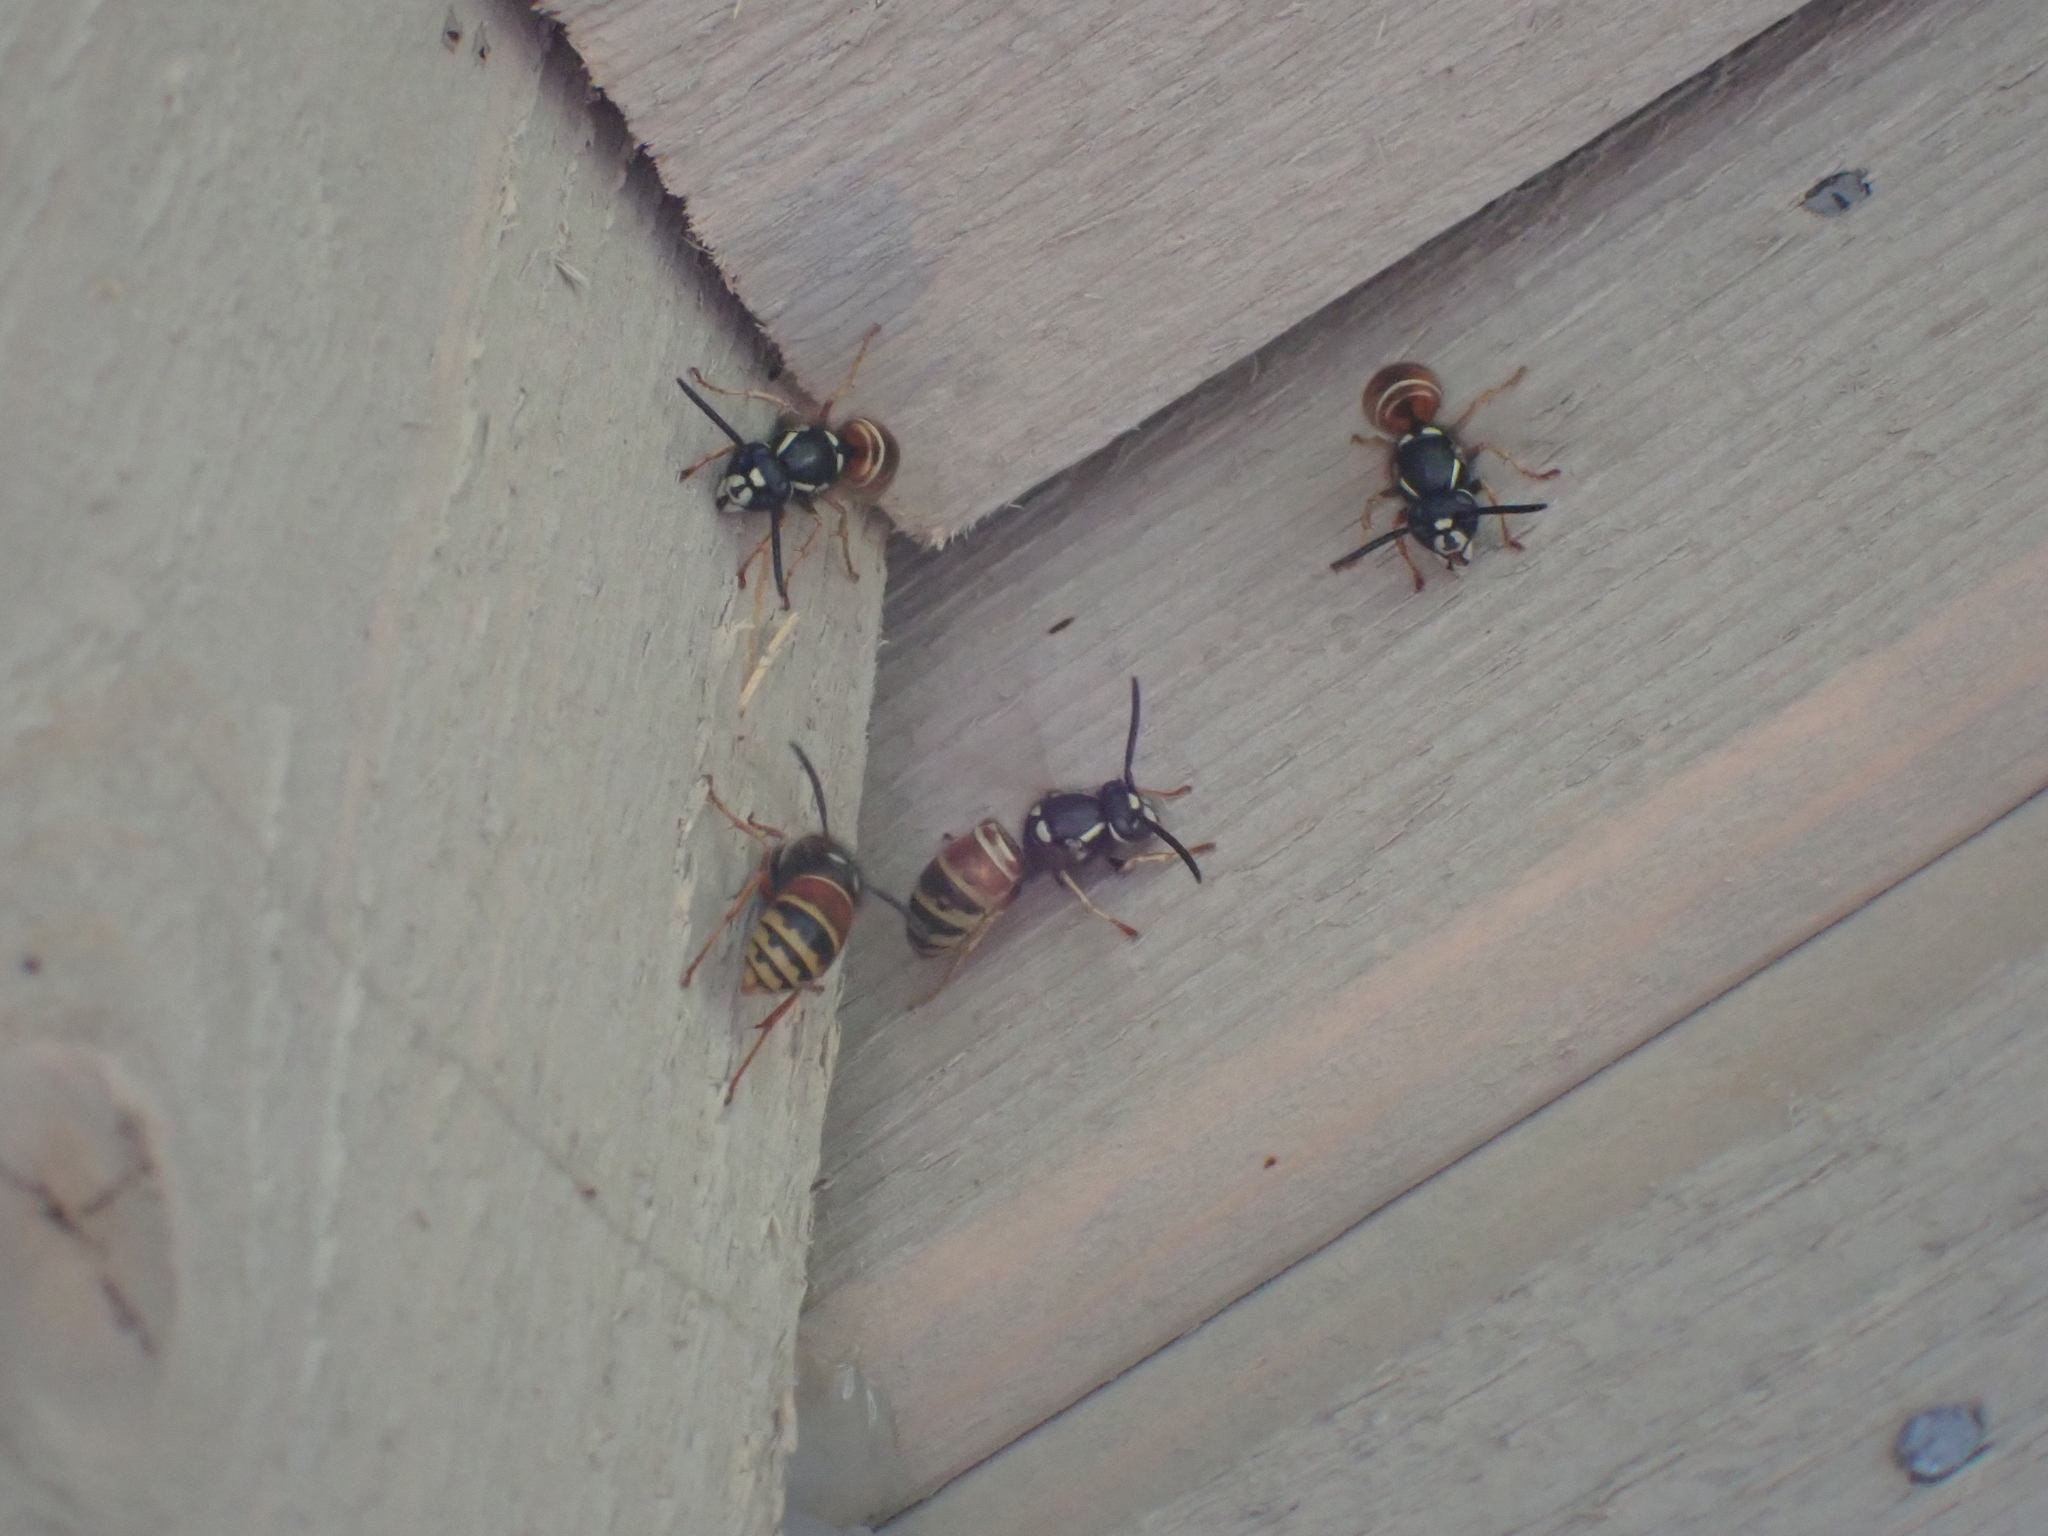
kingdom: Animalia
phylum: Arthropoda
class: Insecta
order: Hymenoptera
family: Vespidae
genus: Vespula
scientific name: Vespula rufa
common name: Red wasp
